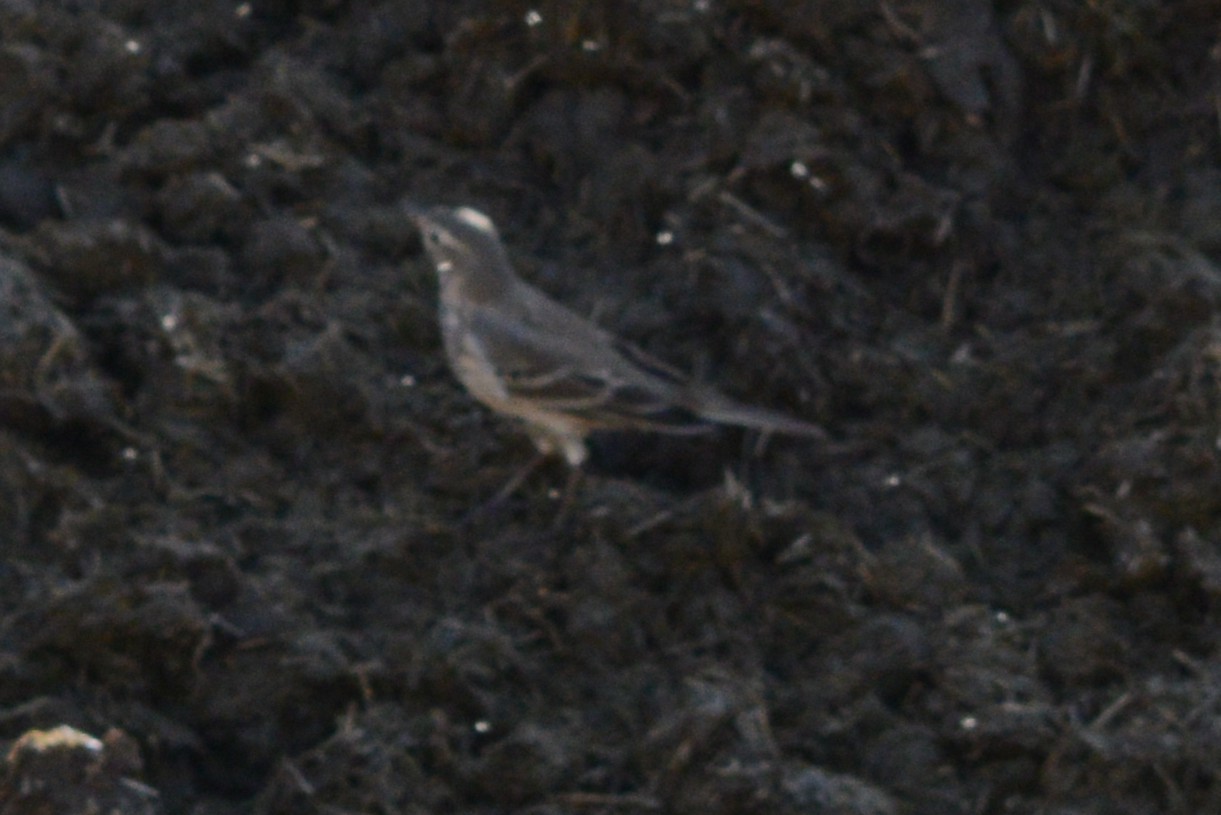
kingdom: Animalia
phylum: Chordata
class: Aves
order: Passeriformes
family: Motacillidae
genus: Anthus
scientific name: Anthus rubescens
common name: Buff-bellied pipit
